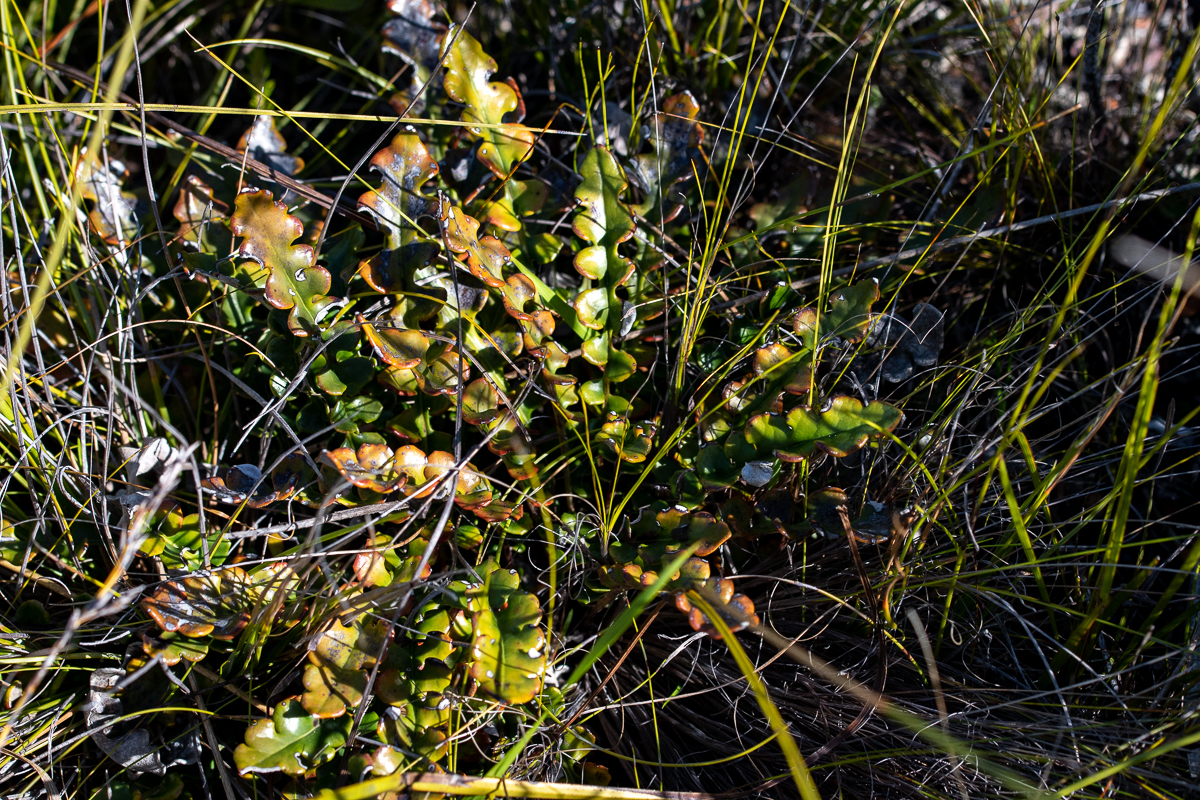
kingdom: Plantae
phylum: Tracheophyta
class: Magnoliopsida
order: Asterales
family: Asteraceae
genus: Gerbera
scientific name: Gerbera linnaei
